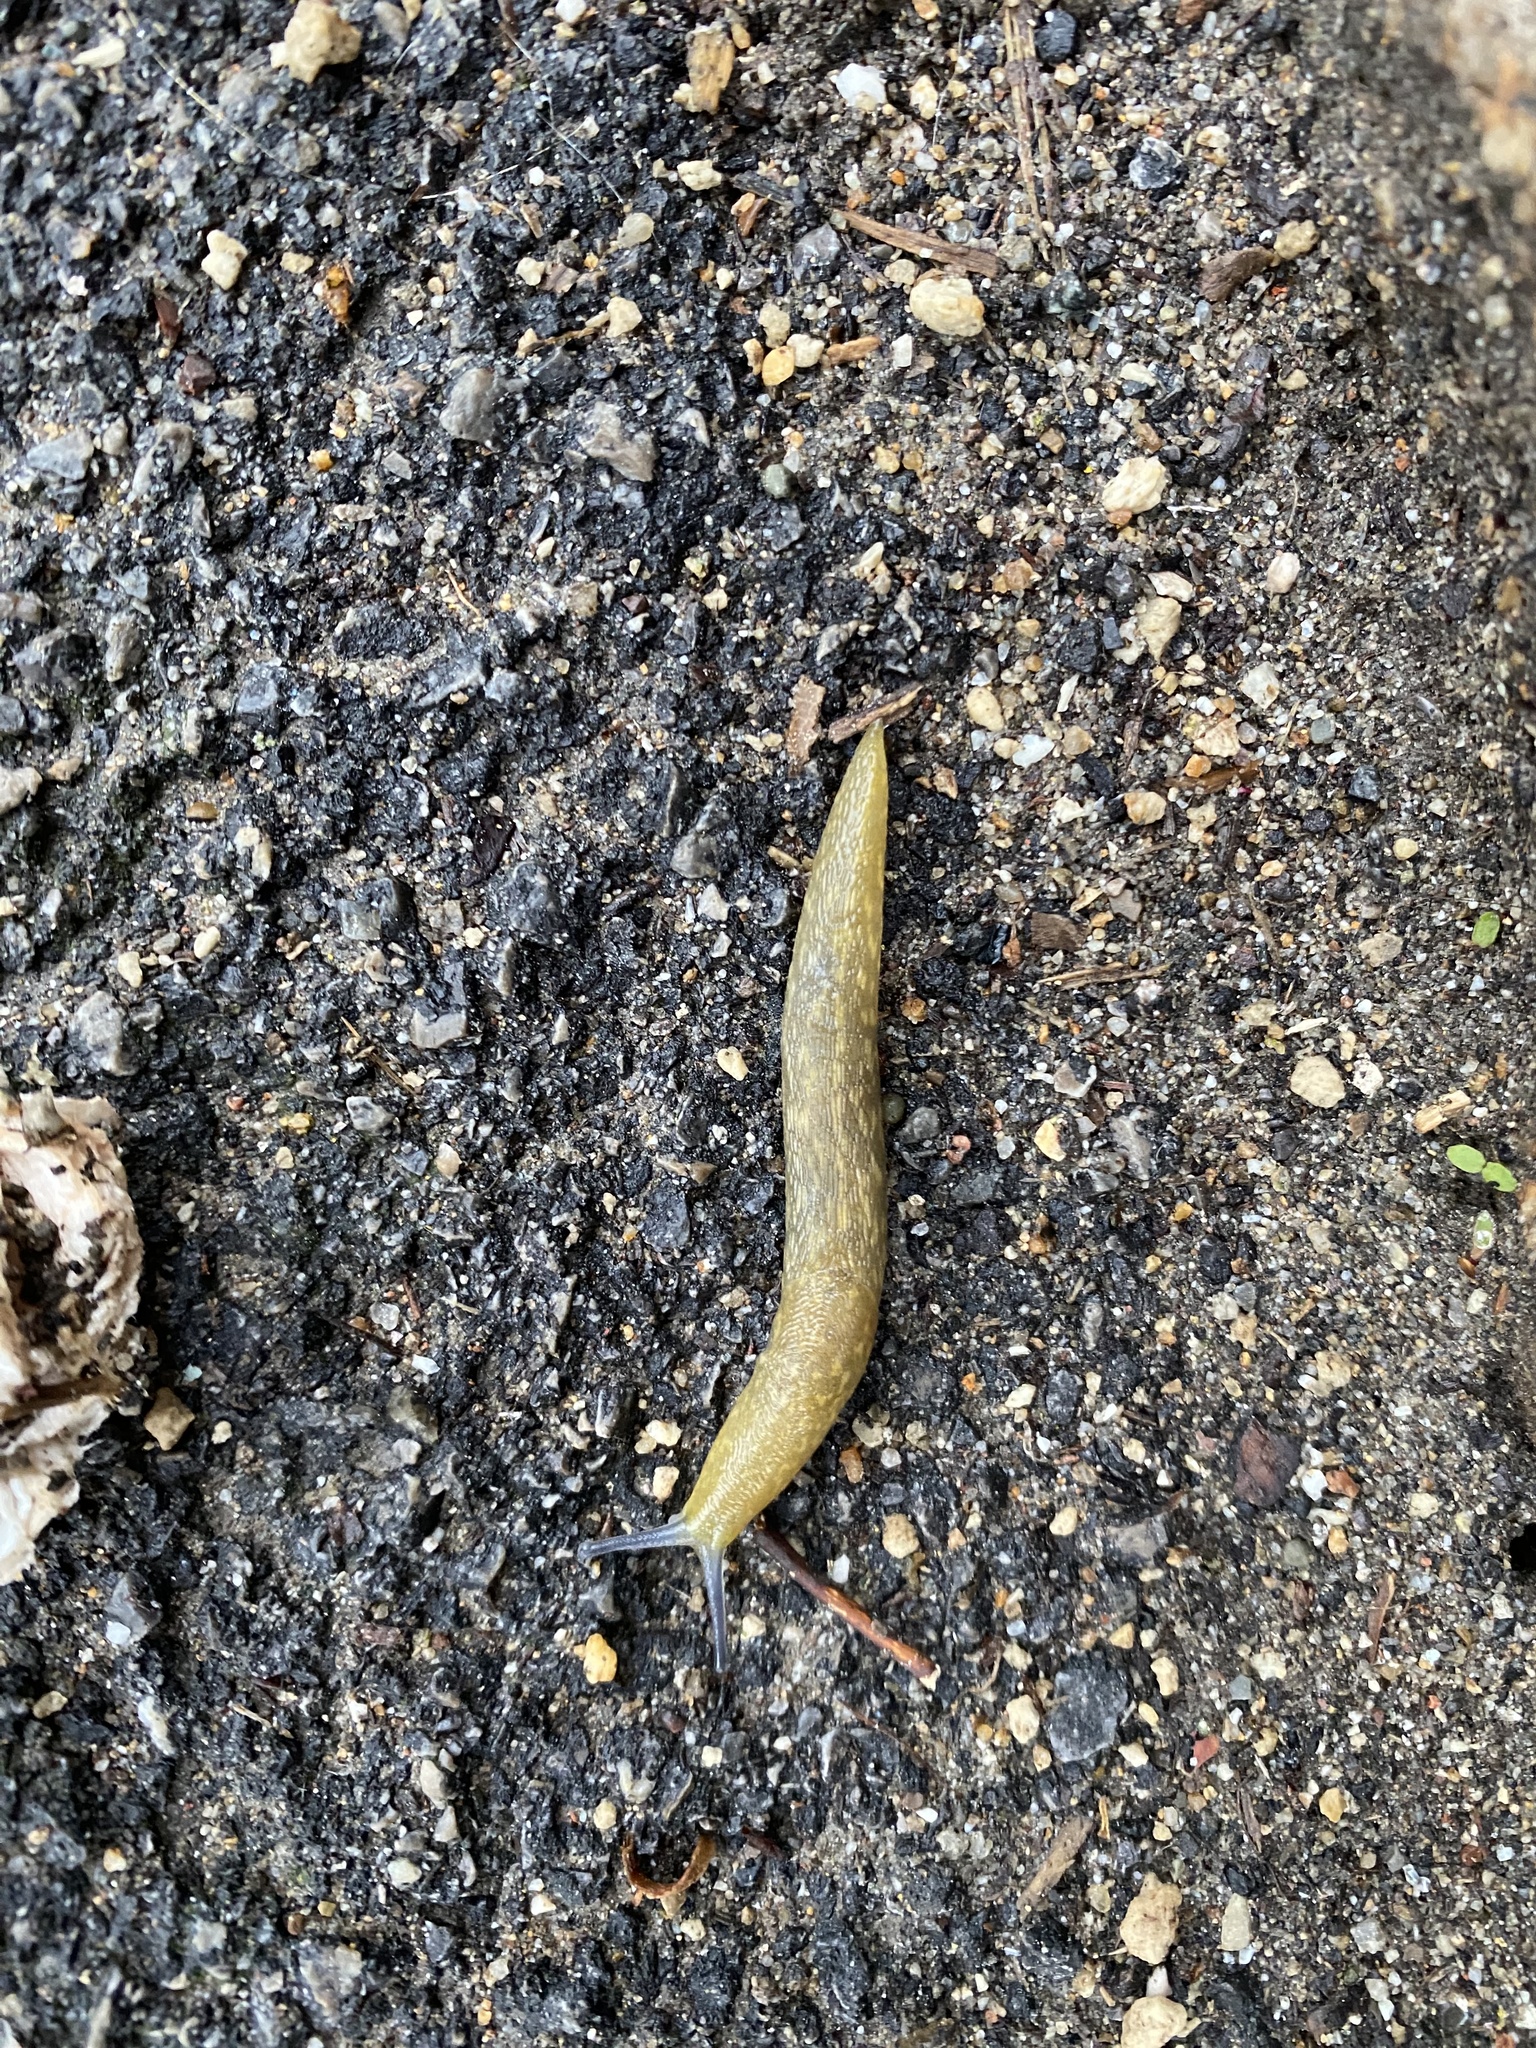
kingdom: Animalia
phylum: Mollusca
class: Gastropoda
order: Stylommatophora
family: Limacidae
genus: Limacus
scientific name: Limacus flavus
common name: Yellow gardenslug
